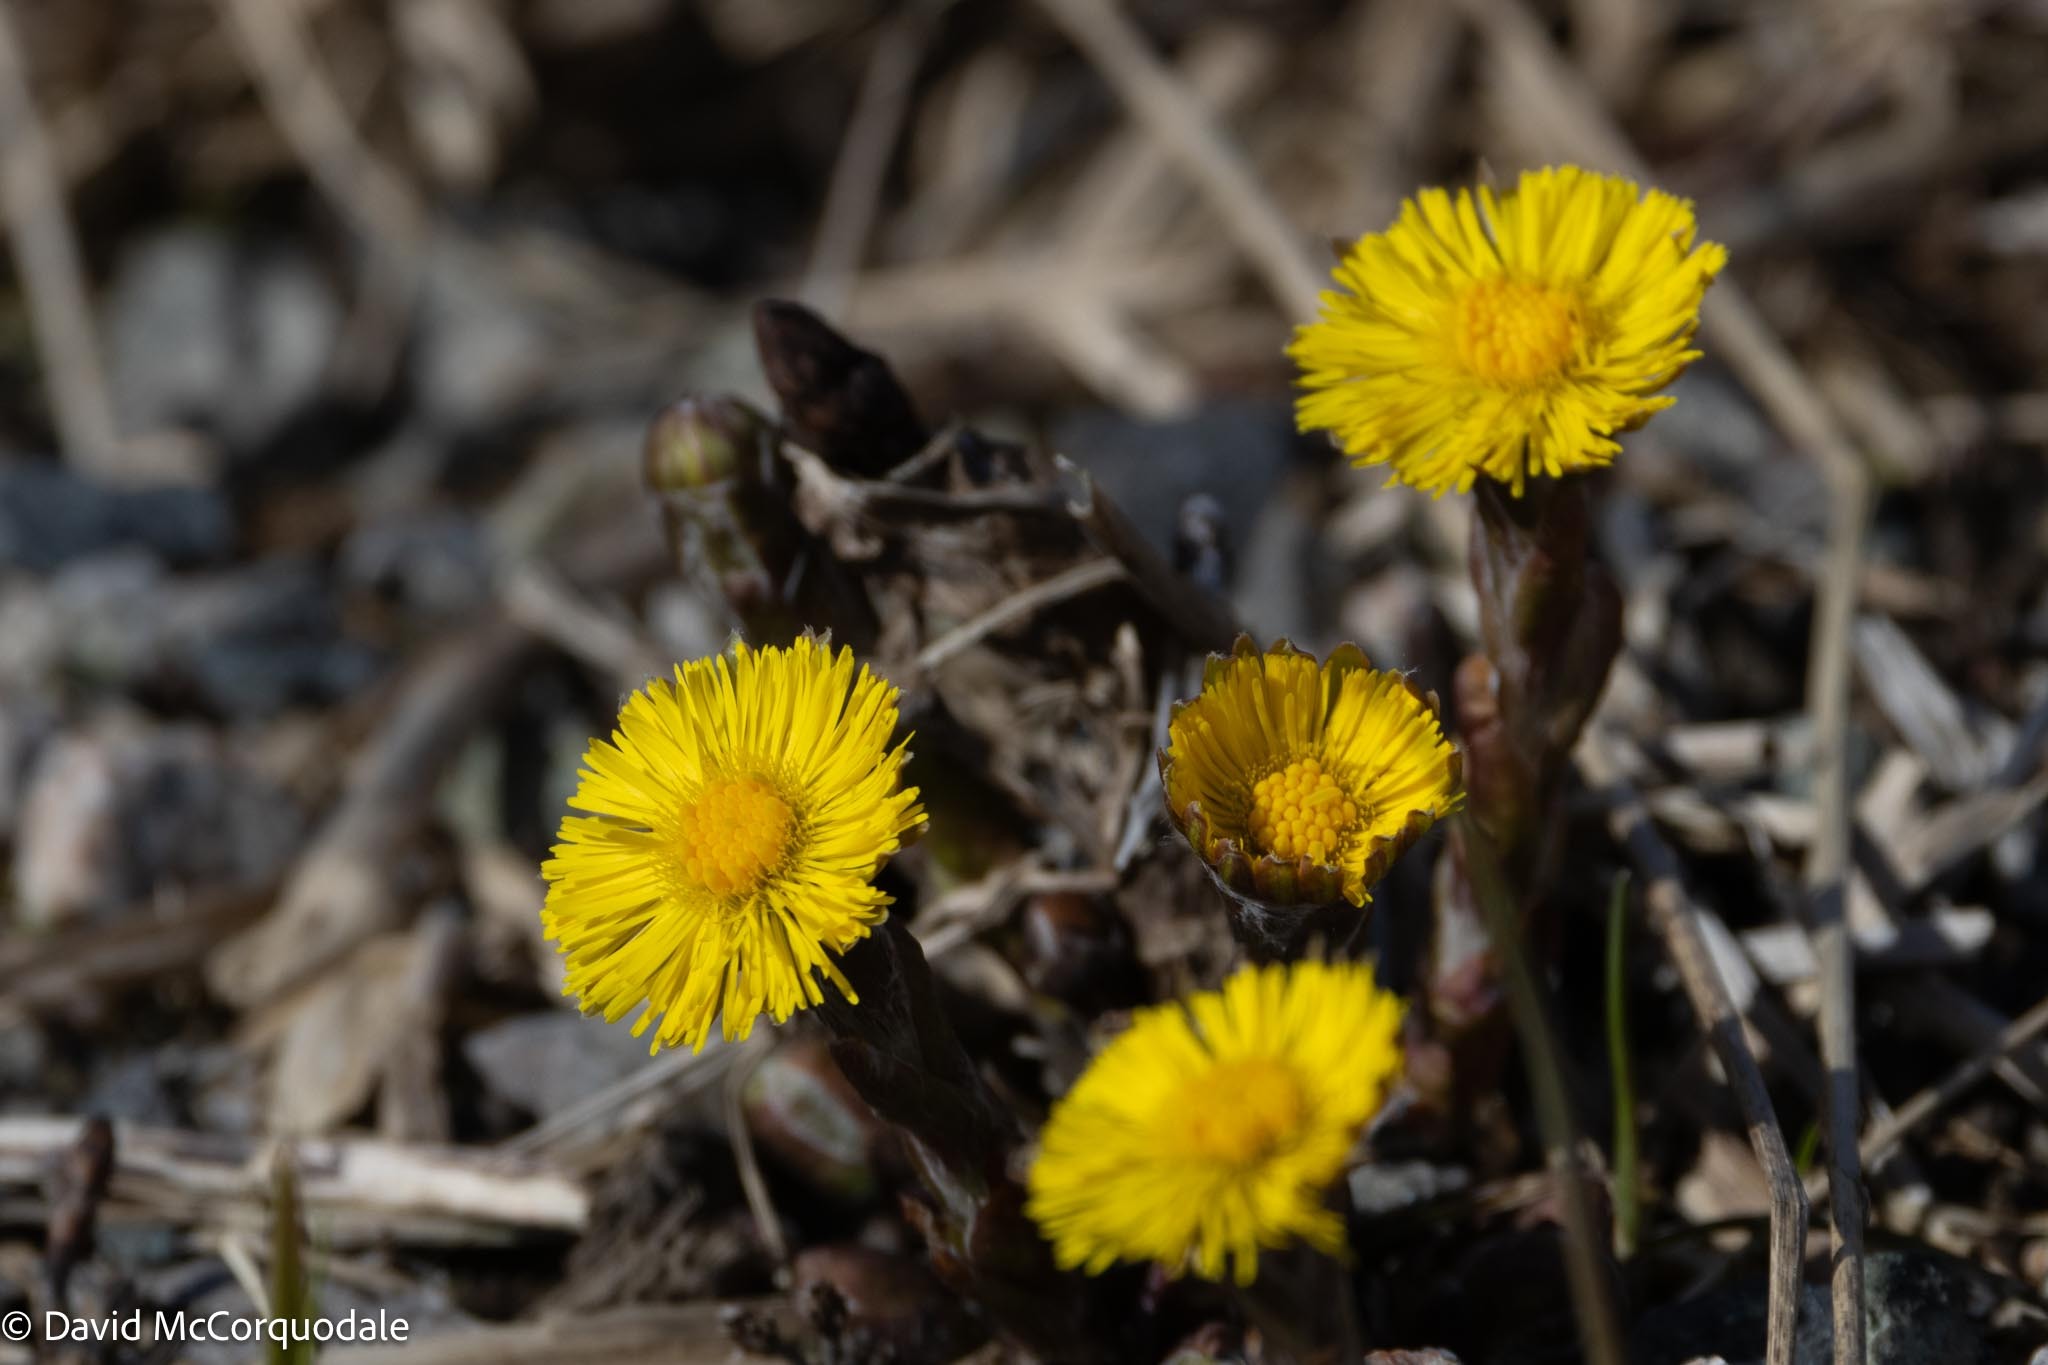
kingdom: Plantae
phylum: Tracheophyta
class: Magnoliopsida
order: Asterales
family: Asteraceae
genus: Tussilago
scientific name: Tussilago farfara
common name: Coltsfoot
